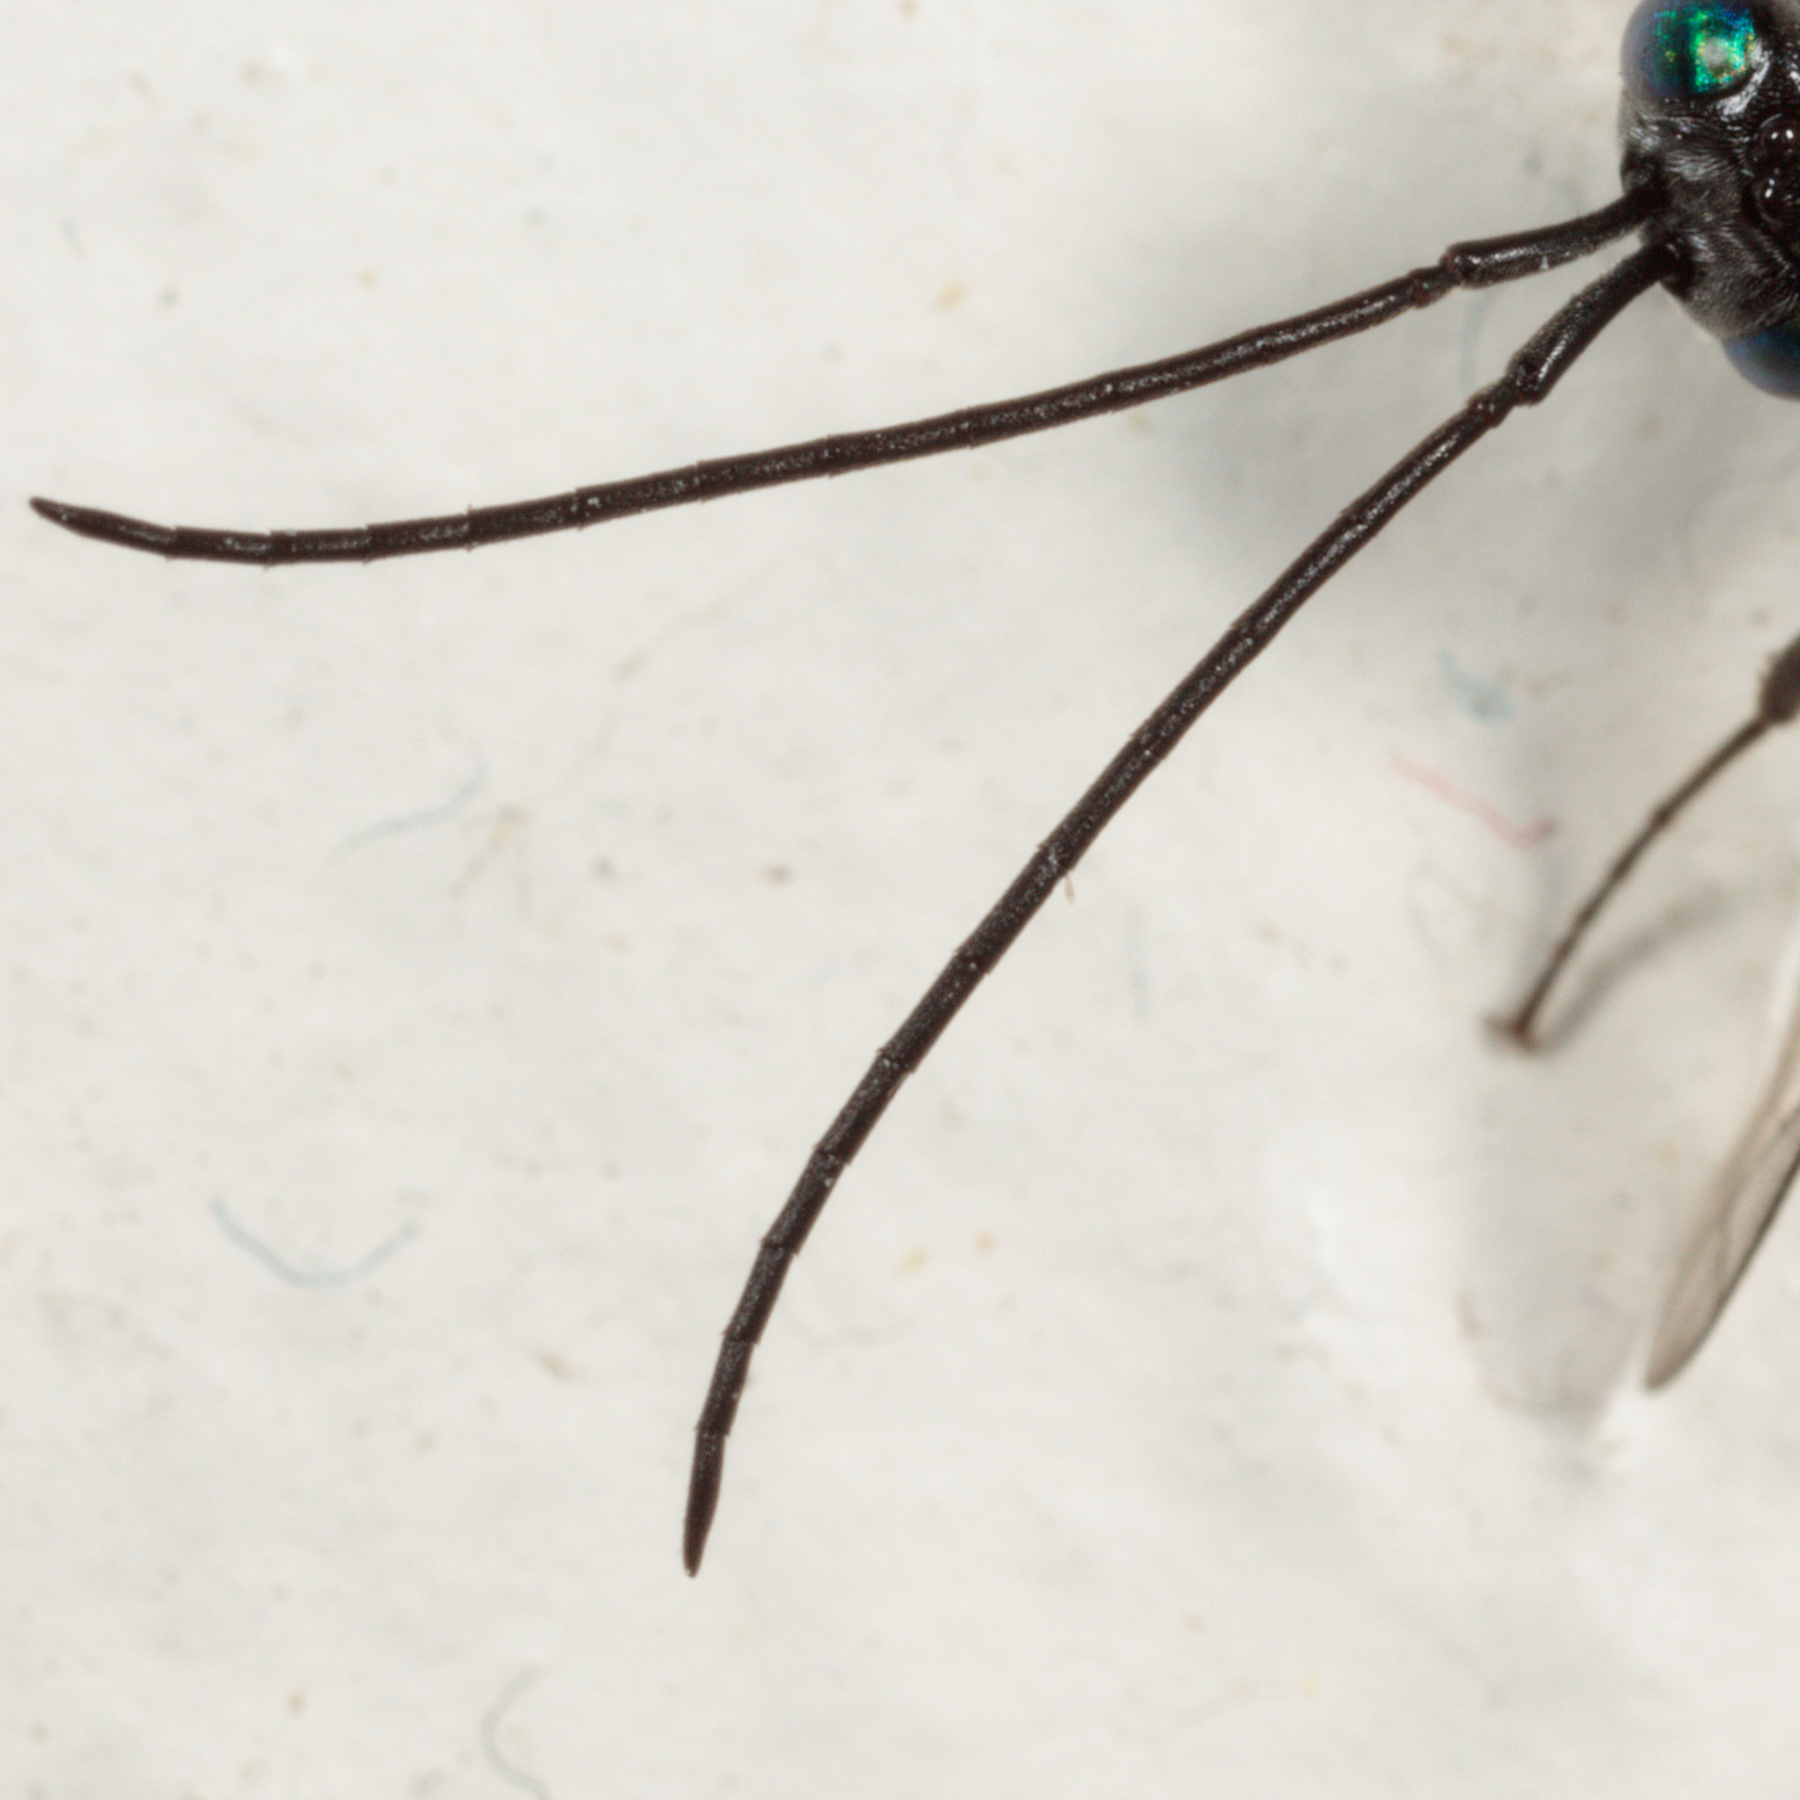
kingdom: Animalia
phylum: Arthropoda
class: Insecta
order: Hymenoptera
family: Evaniidae
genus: Evania
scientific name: Evania appendigaster
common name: Ensign wasp
